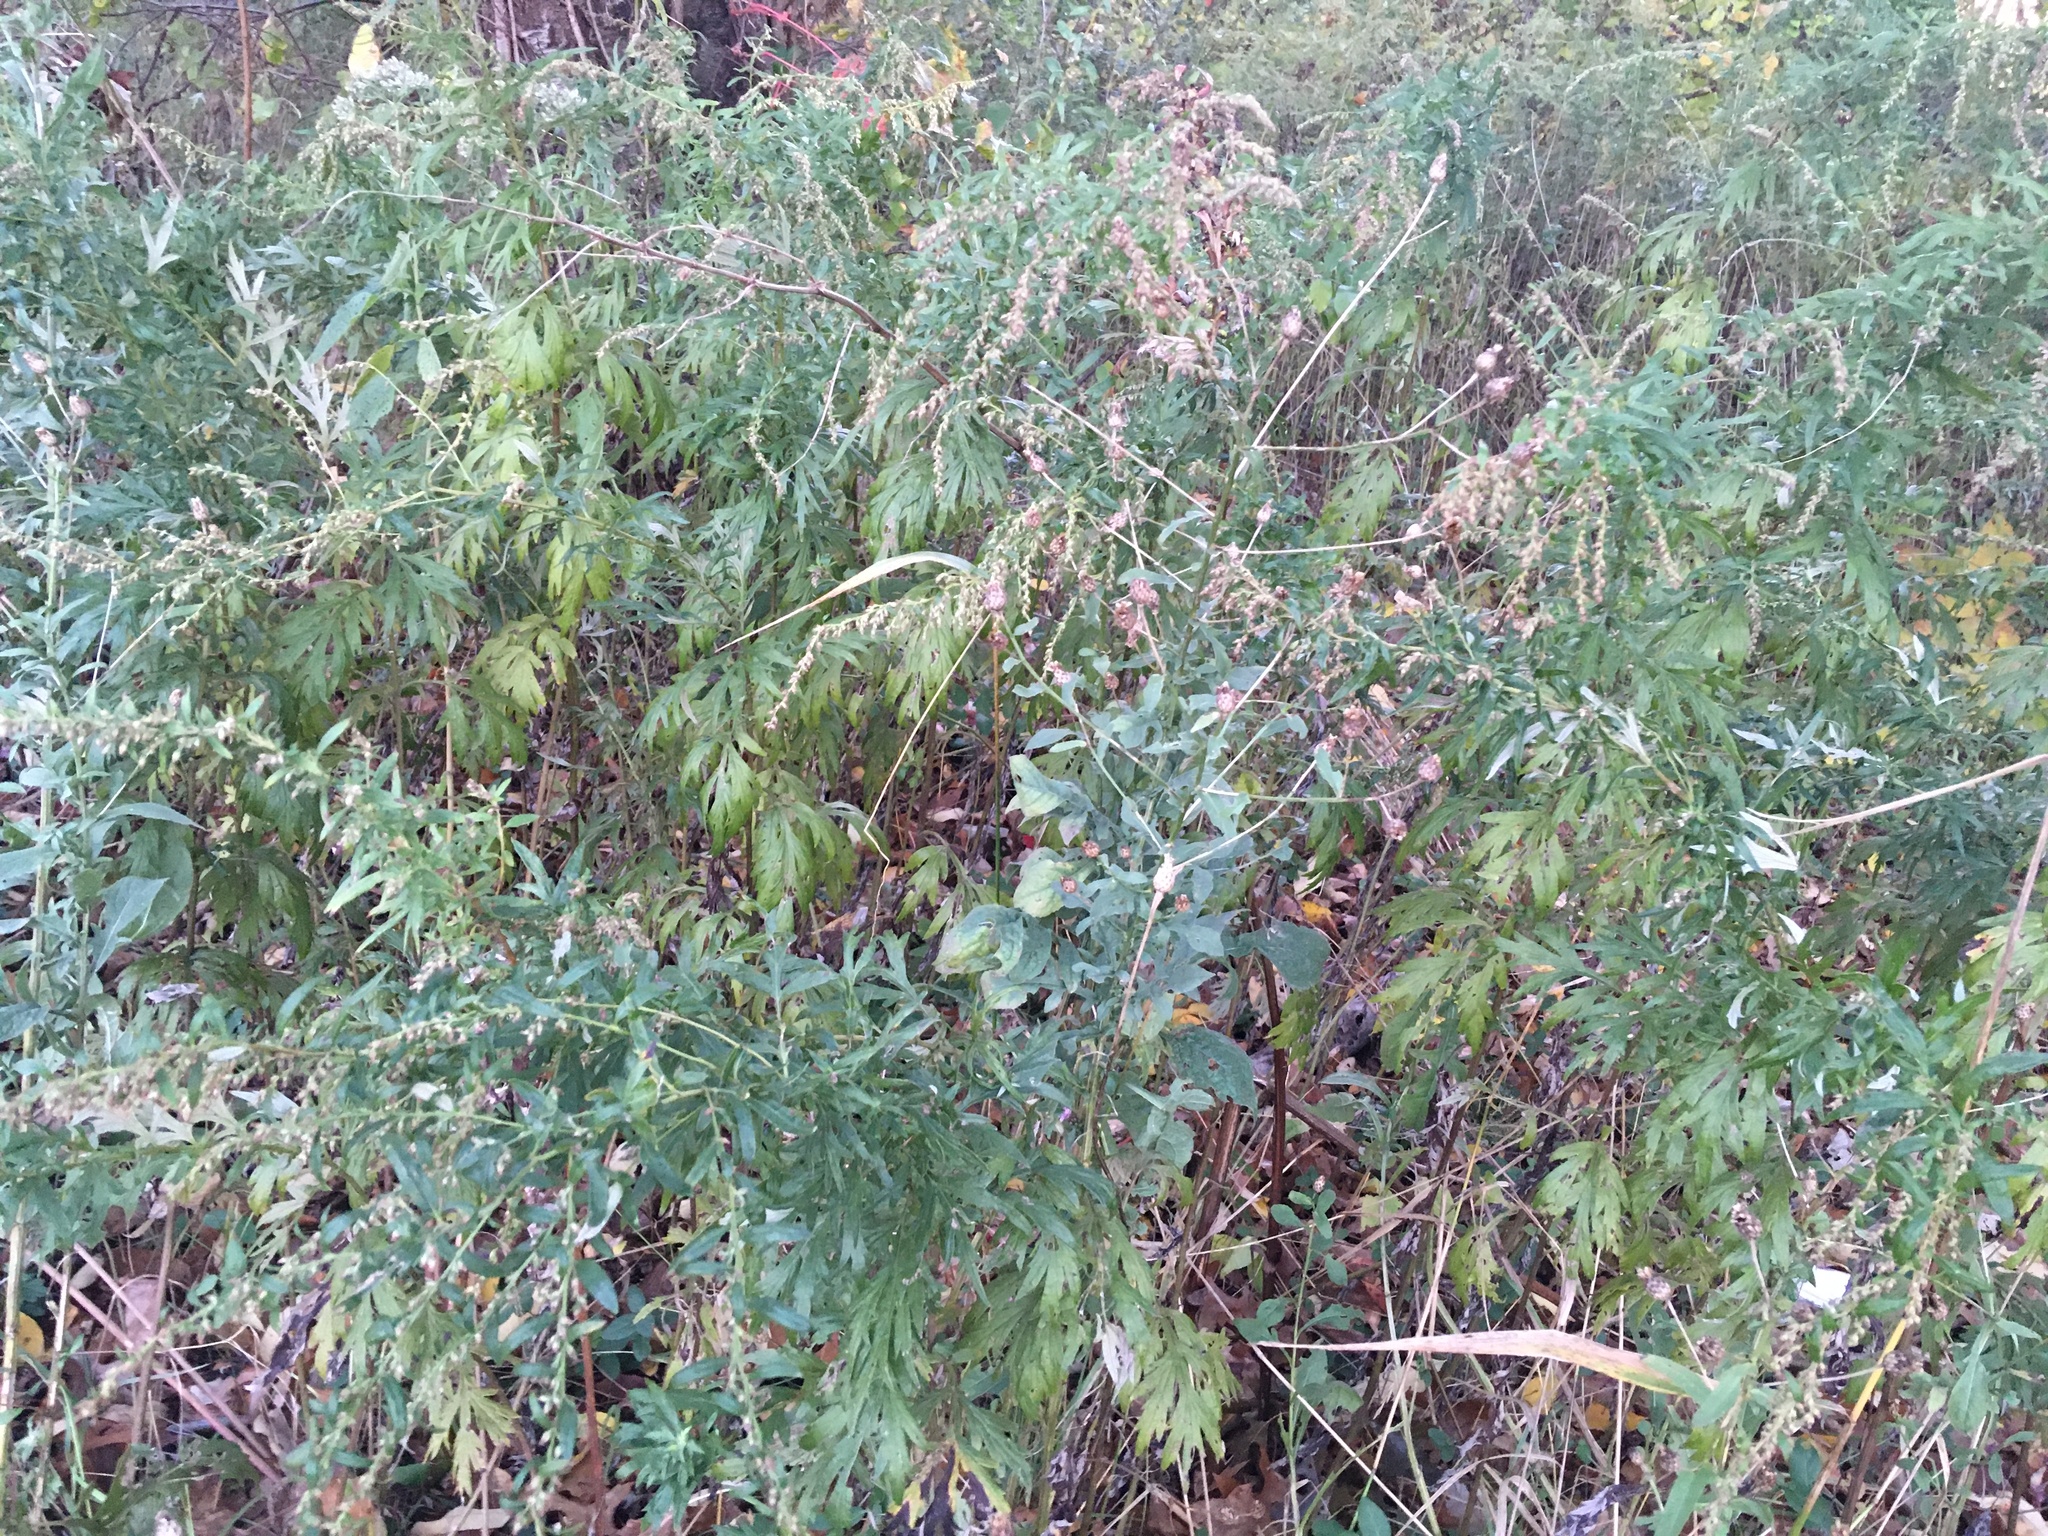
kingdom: Plantae
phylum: Tracheophyta
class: Magnoliopsida
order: Asterales
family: Asteraceae
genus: Artemisia
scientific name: Artemisia vulgaris
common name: Mugwort
